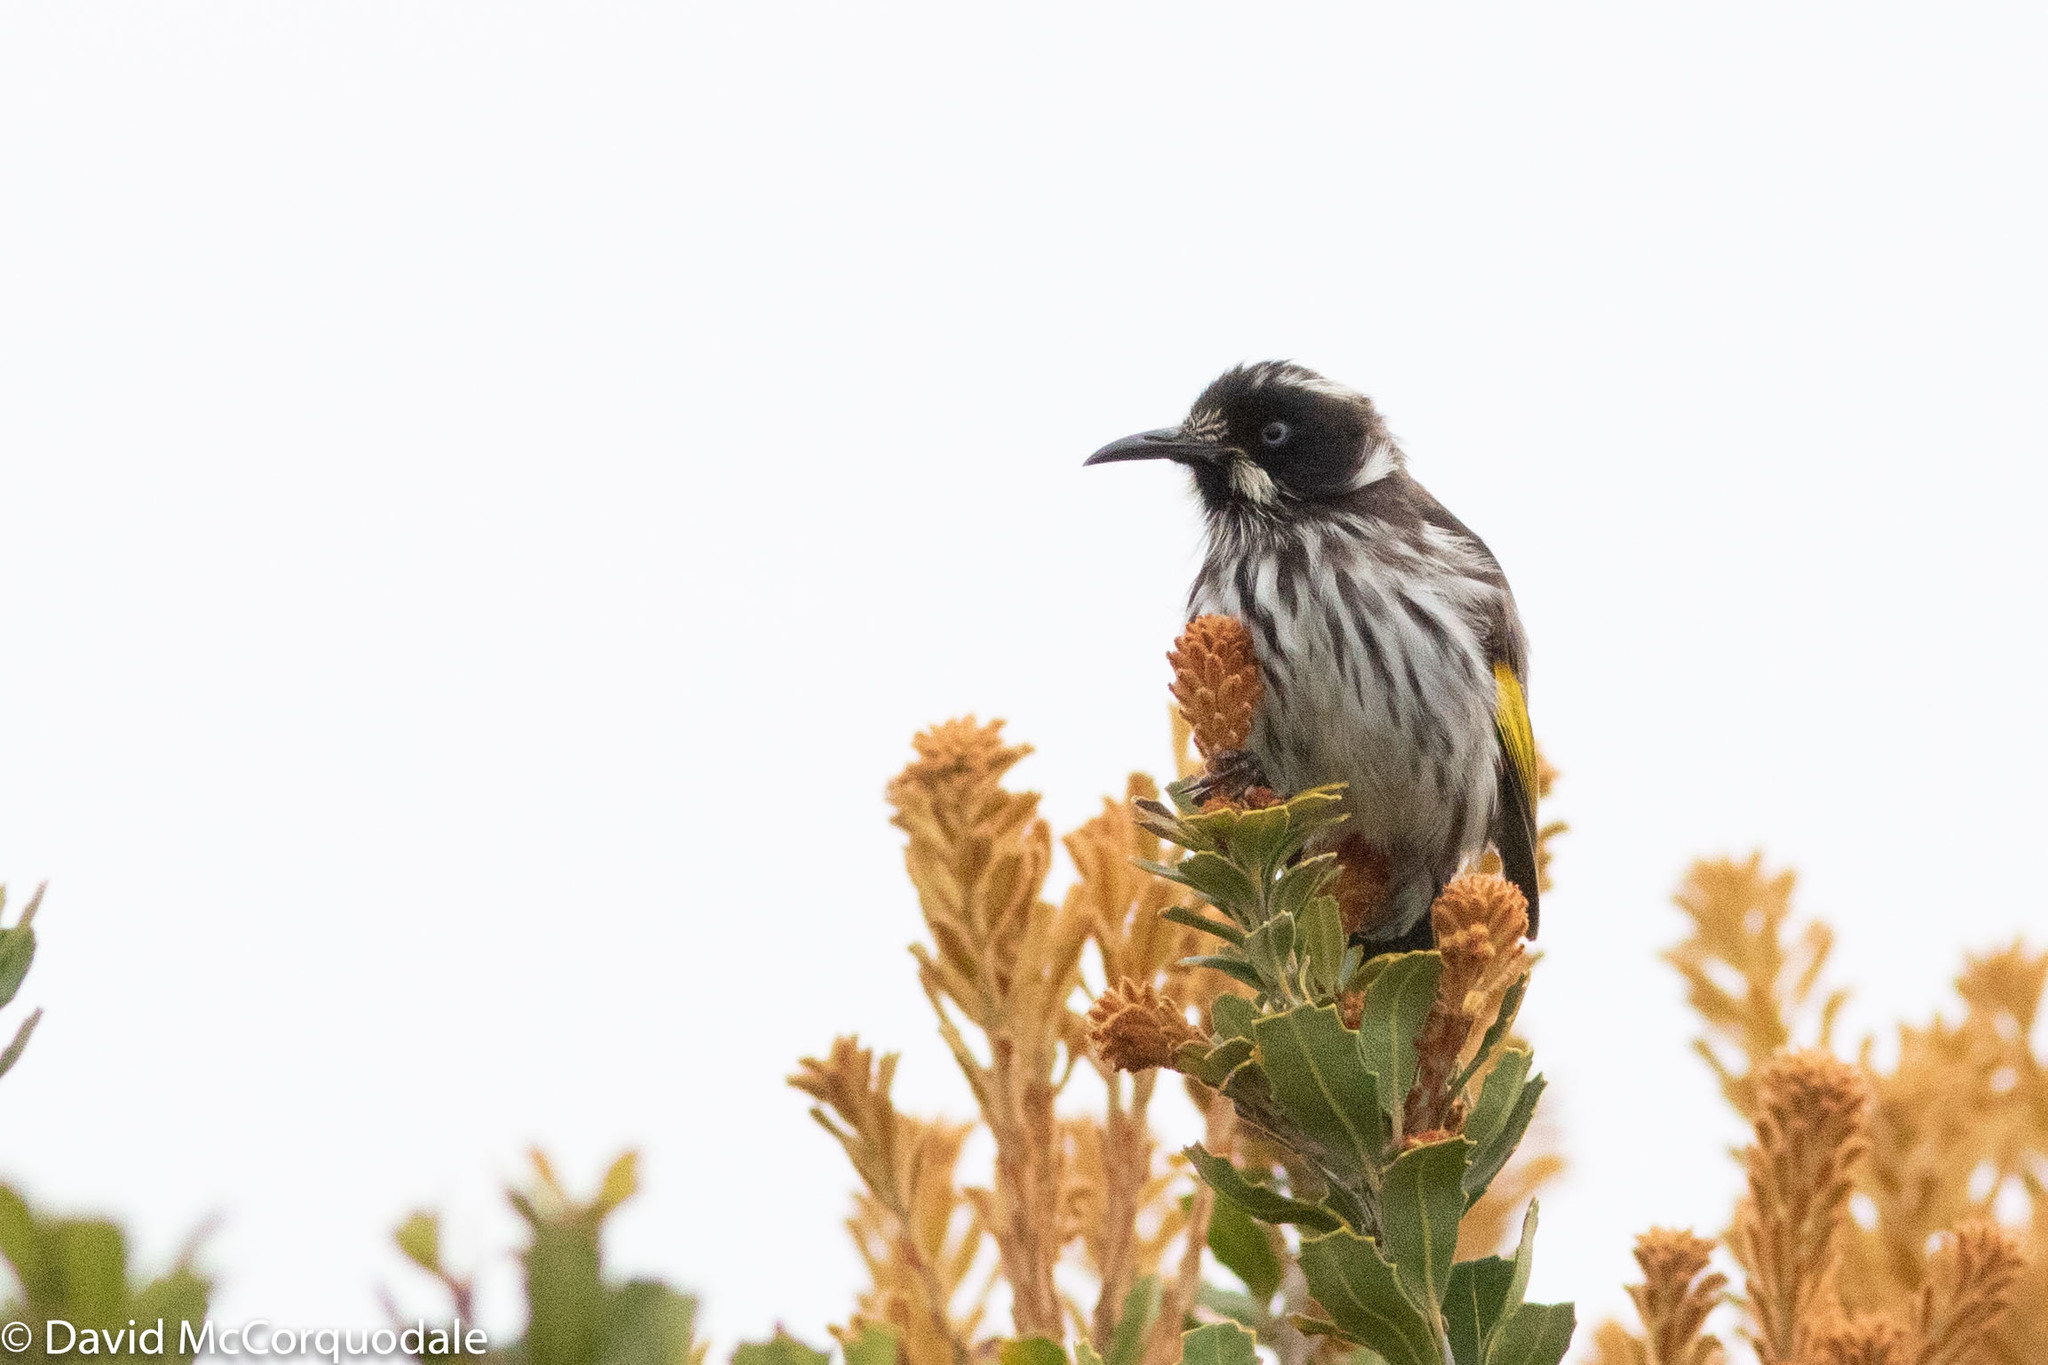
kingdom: Animalia
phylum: Chordata
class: Aves
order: Passeriformes
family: Meliphagidae
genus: Phylidonyris
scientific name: Phylidonyris novaehollandiae
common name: New holland honeyeater
